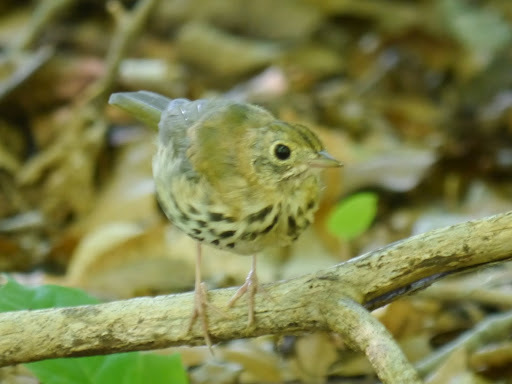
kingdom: Animalia
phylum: Chordata
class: Aves
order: Passeriformes
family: Parulidae
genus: Seiurus
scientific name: Seiurus aurocapilla
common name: Ovenbird
